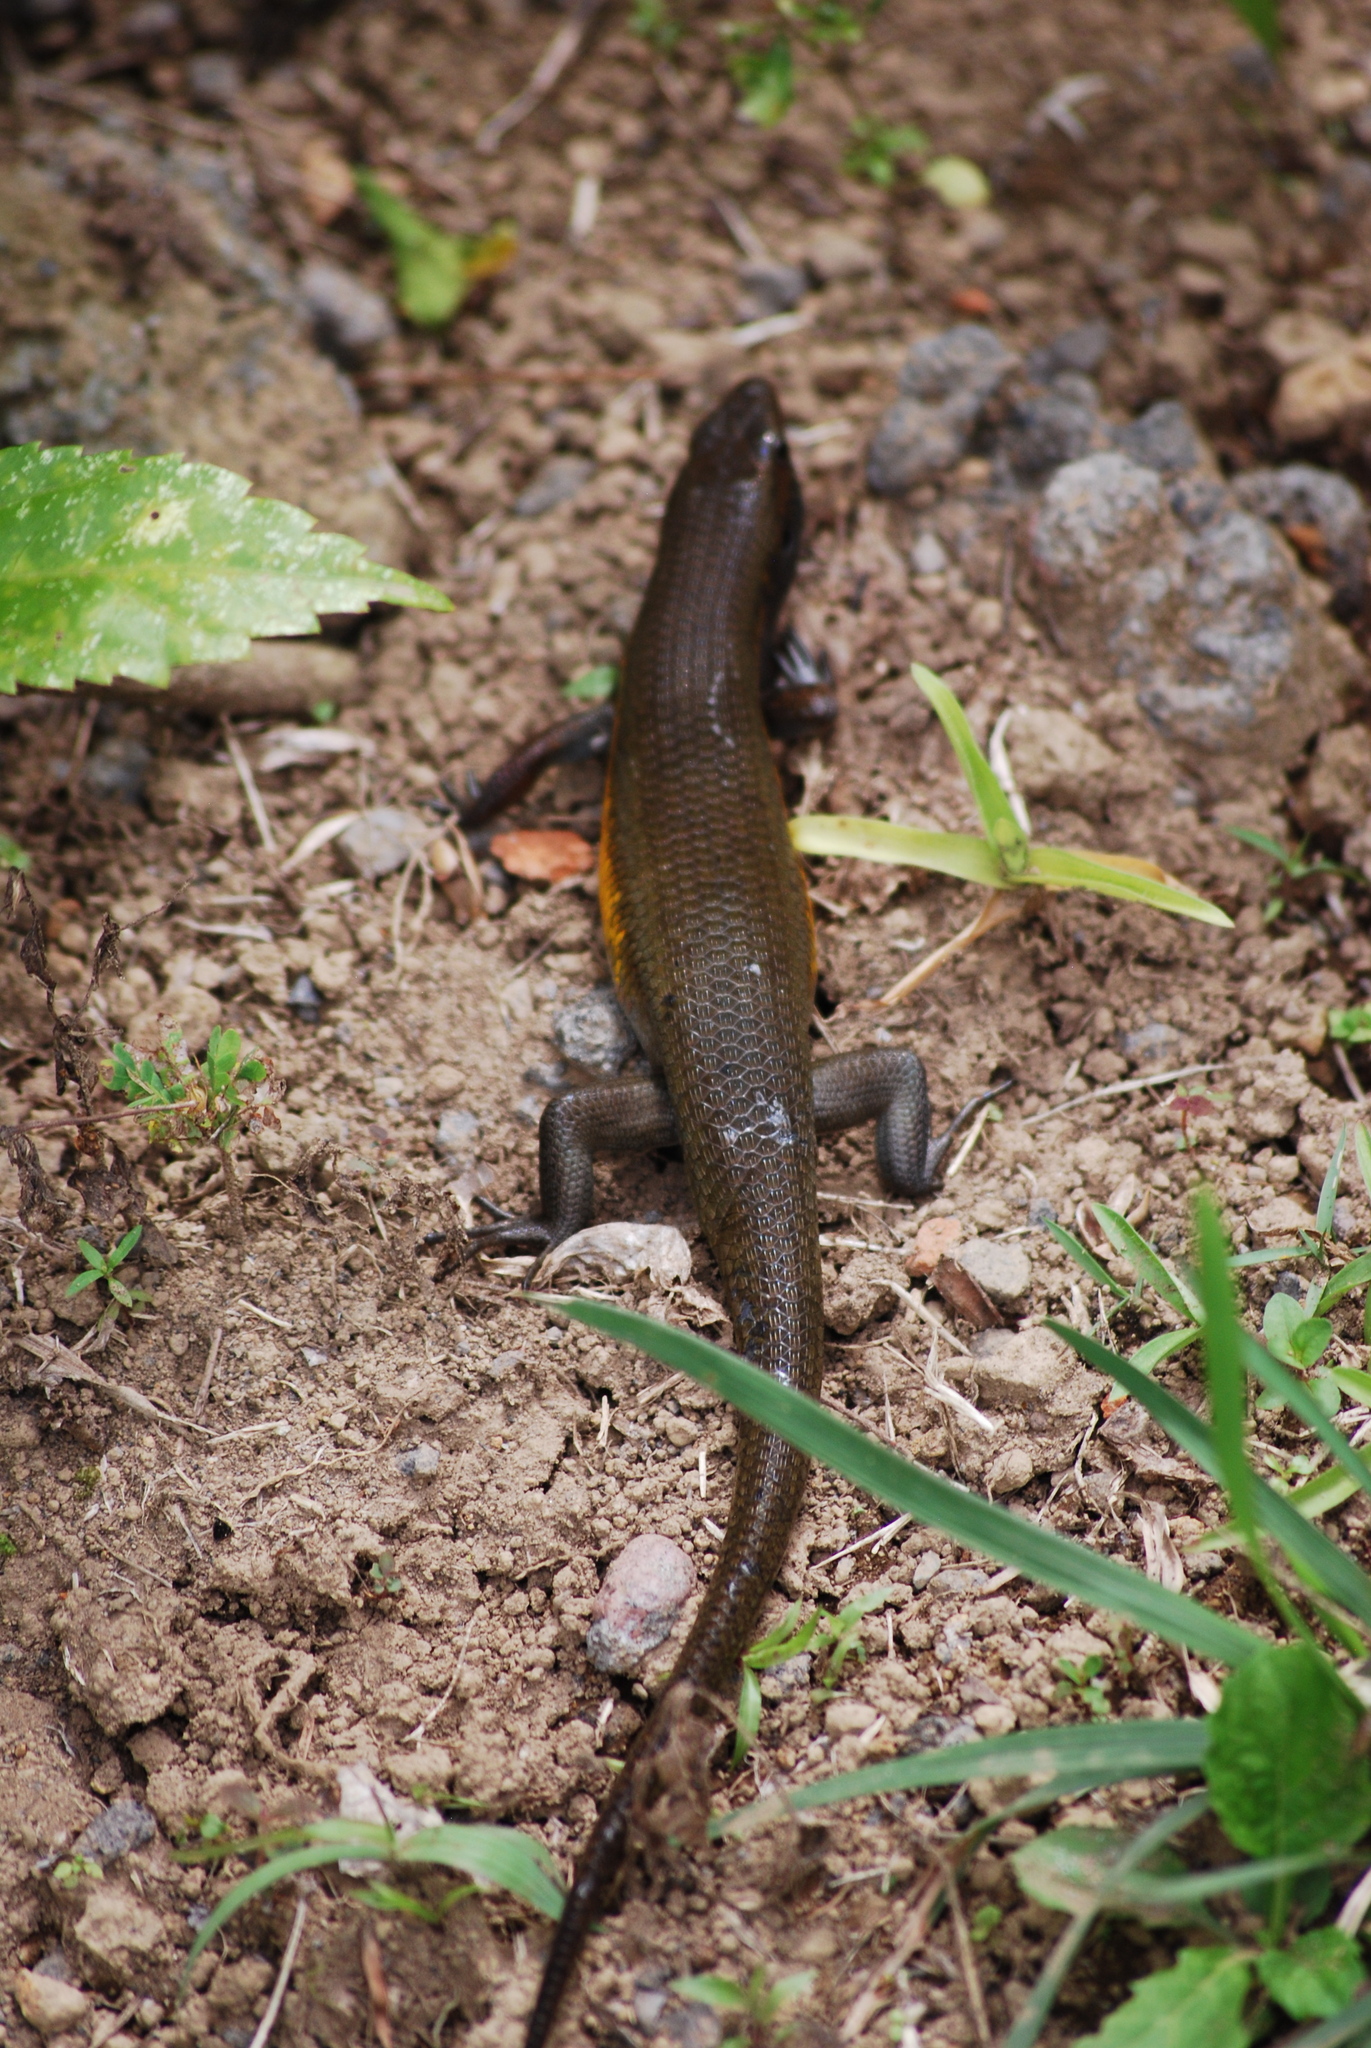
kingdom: Animalia
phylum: Chordata
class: Squamata
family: Scincidae
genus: Eutropis
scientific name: Eutropis multifasciata
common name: Common mabuya
